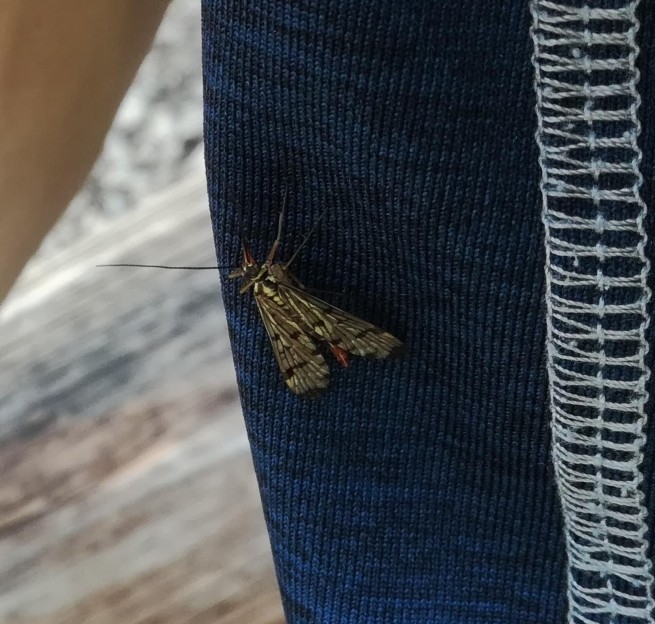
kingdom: Animalia
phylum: Arthropoda
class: Insecta
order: Mecoptera
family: Panorpidae
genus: Panorpa
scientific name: Panorpa germanica
